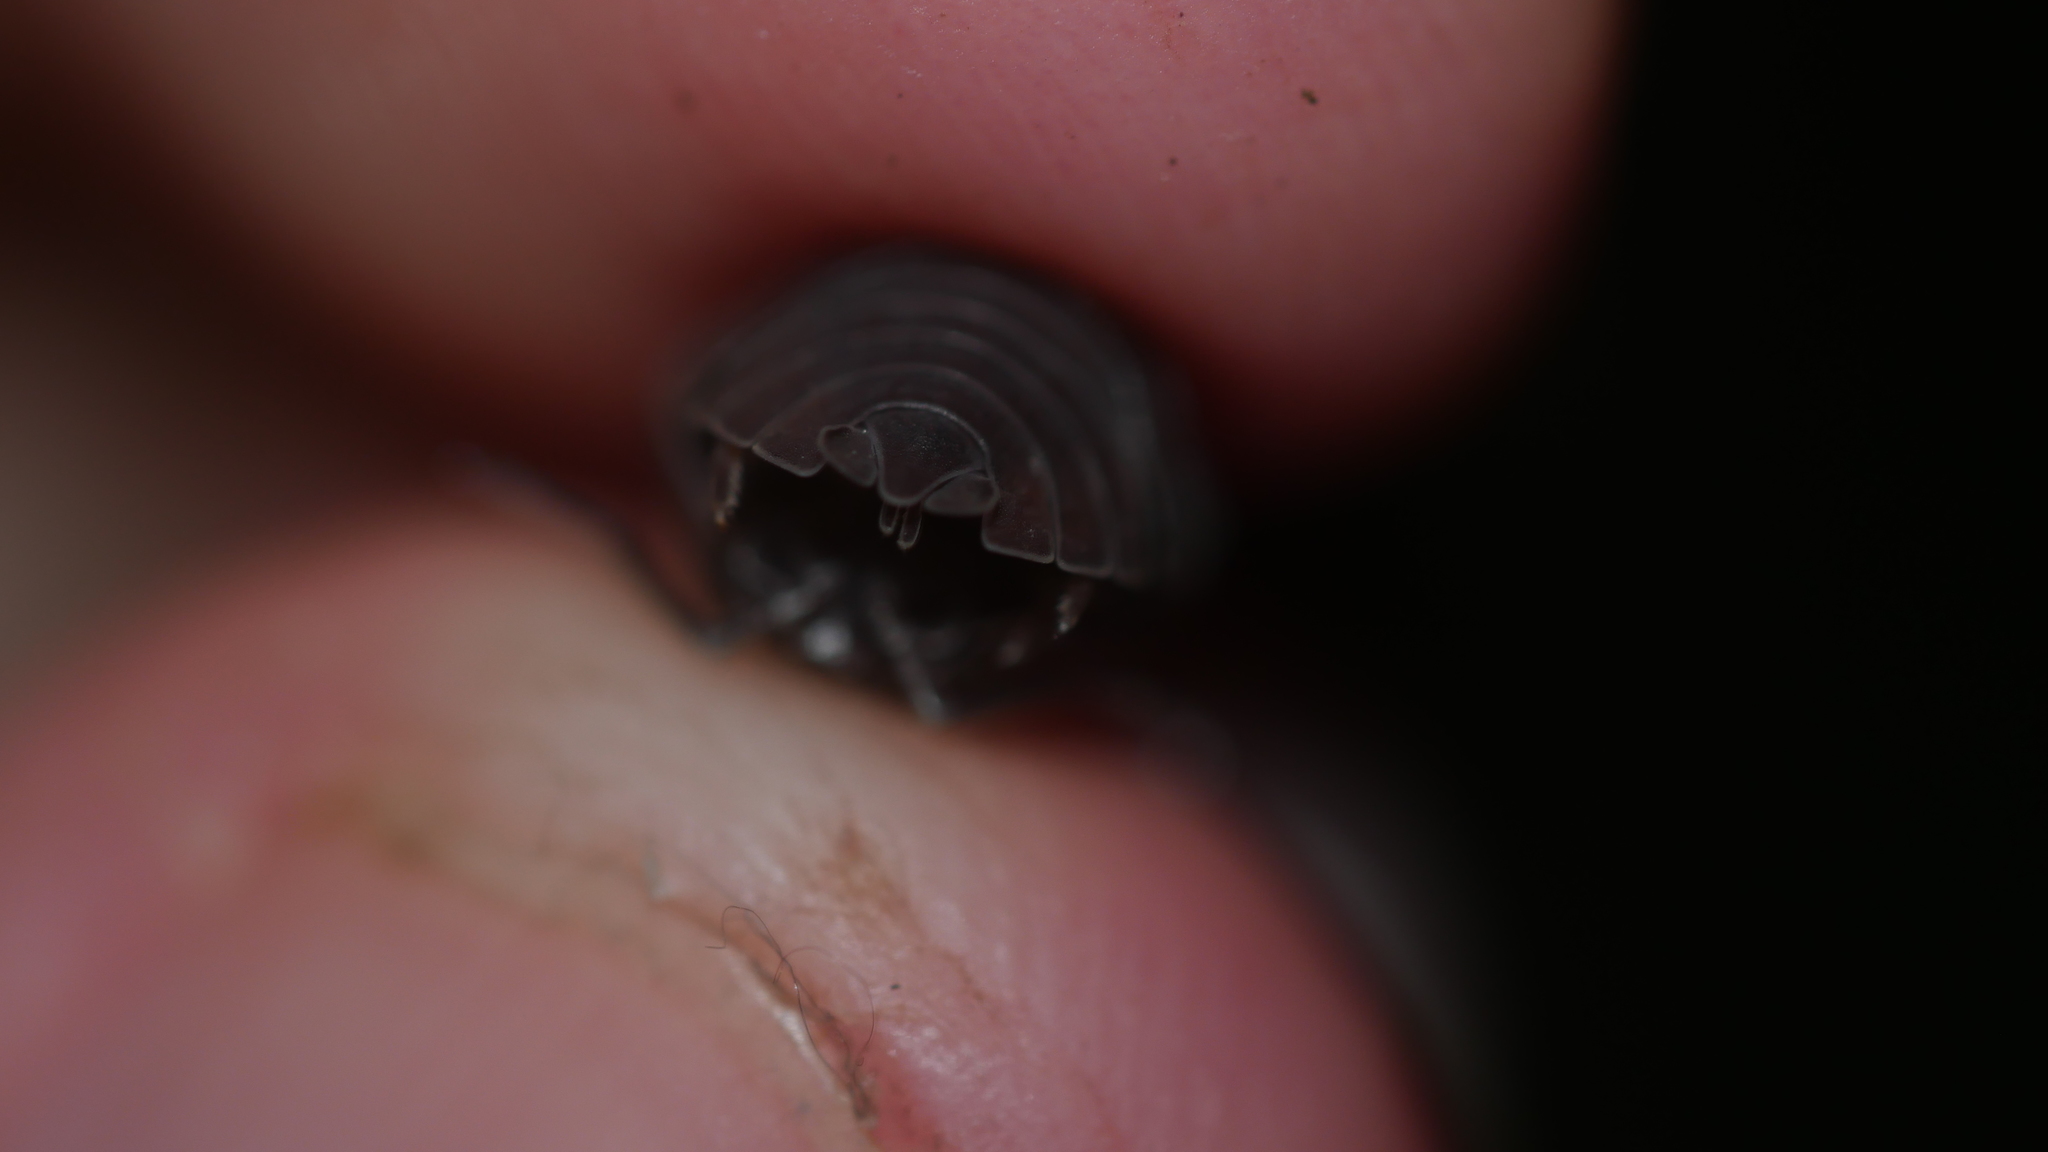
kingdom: Animalia
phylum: Arthropoda
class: Malacostraca
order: Isopoda
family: Armadillidiidae
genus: Armadillidium
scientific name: Armadillidium nasatum
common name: Isopod
